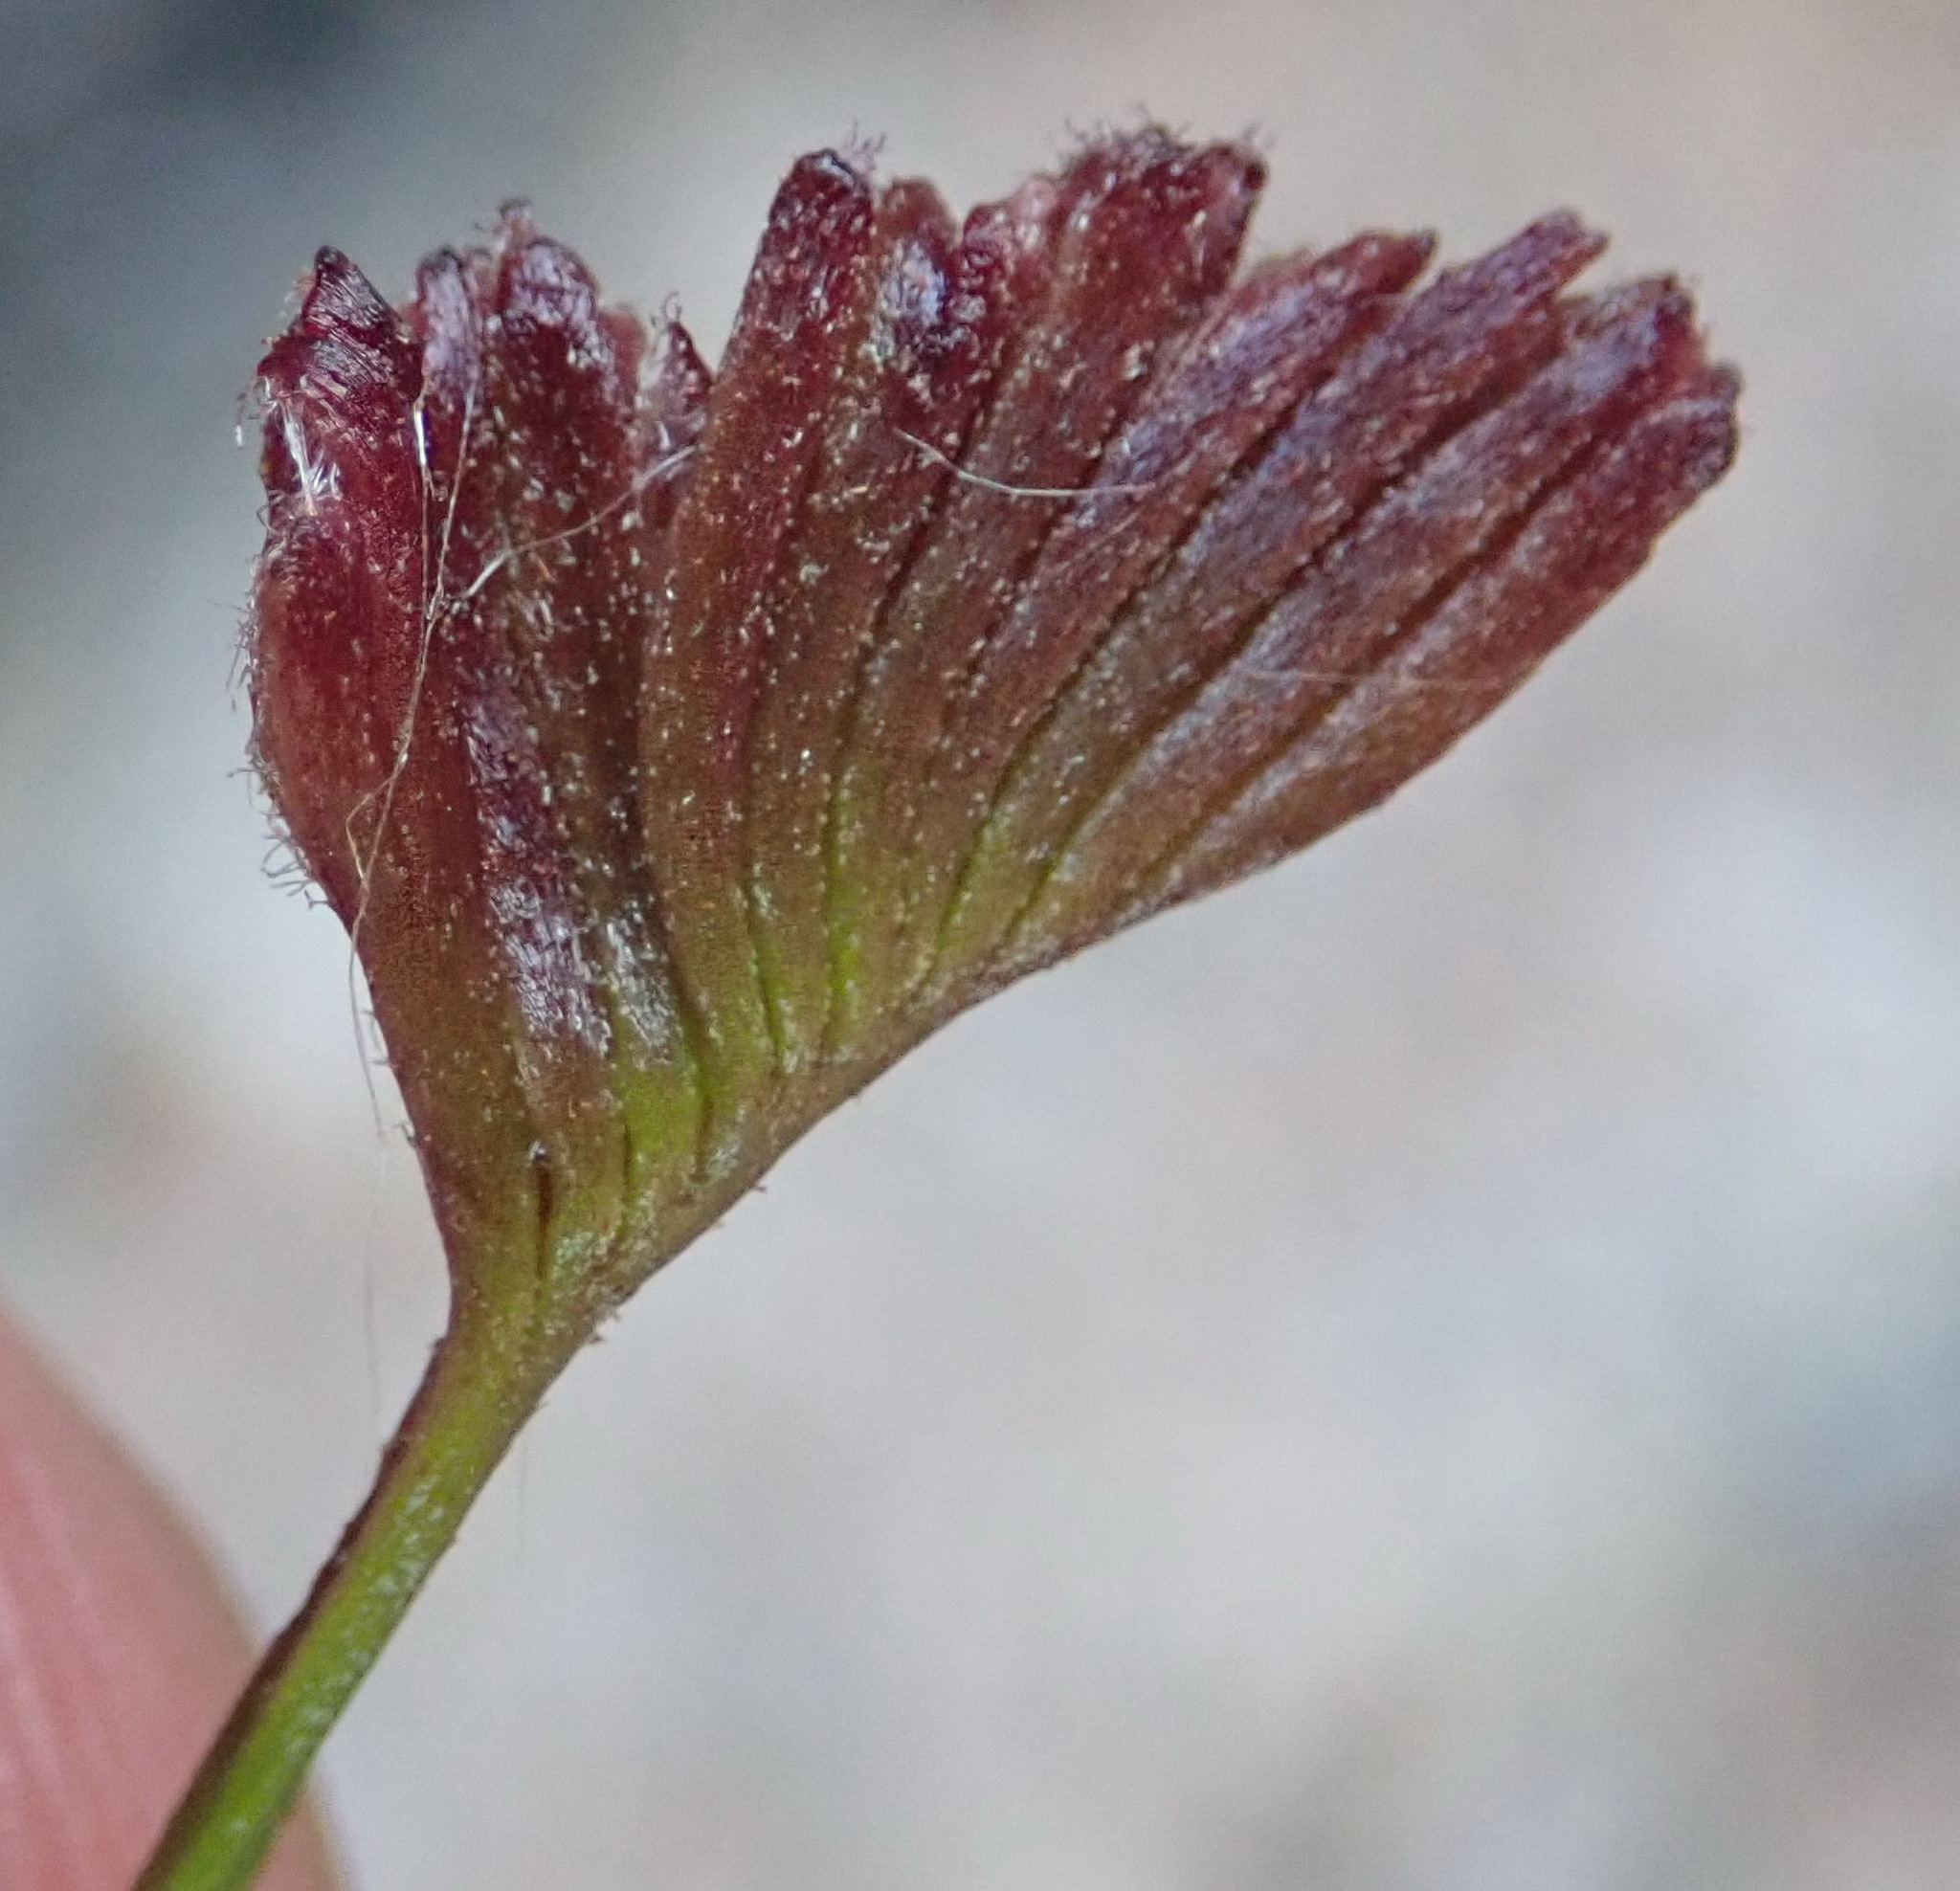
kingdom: Plantae
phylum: Tracheophyta
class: Polypodiopsida
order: Schizaeales
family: Schizaeaceae
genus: Schizaea
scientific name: Schizaea pectinata
